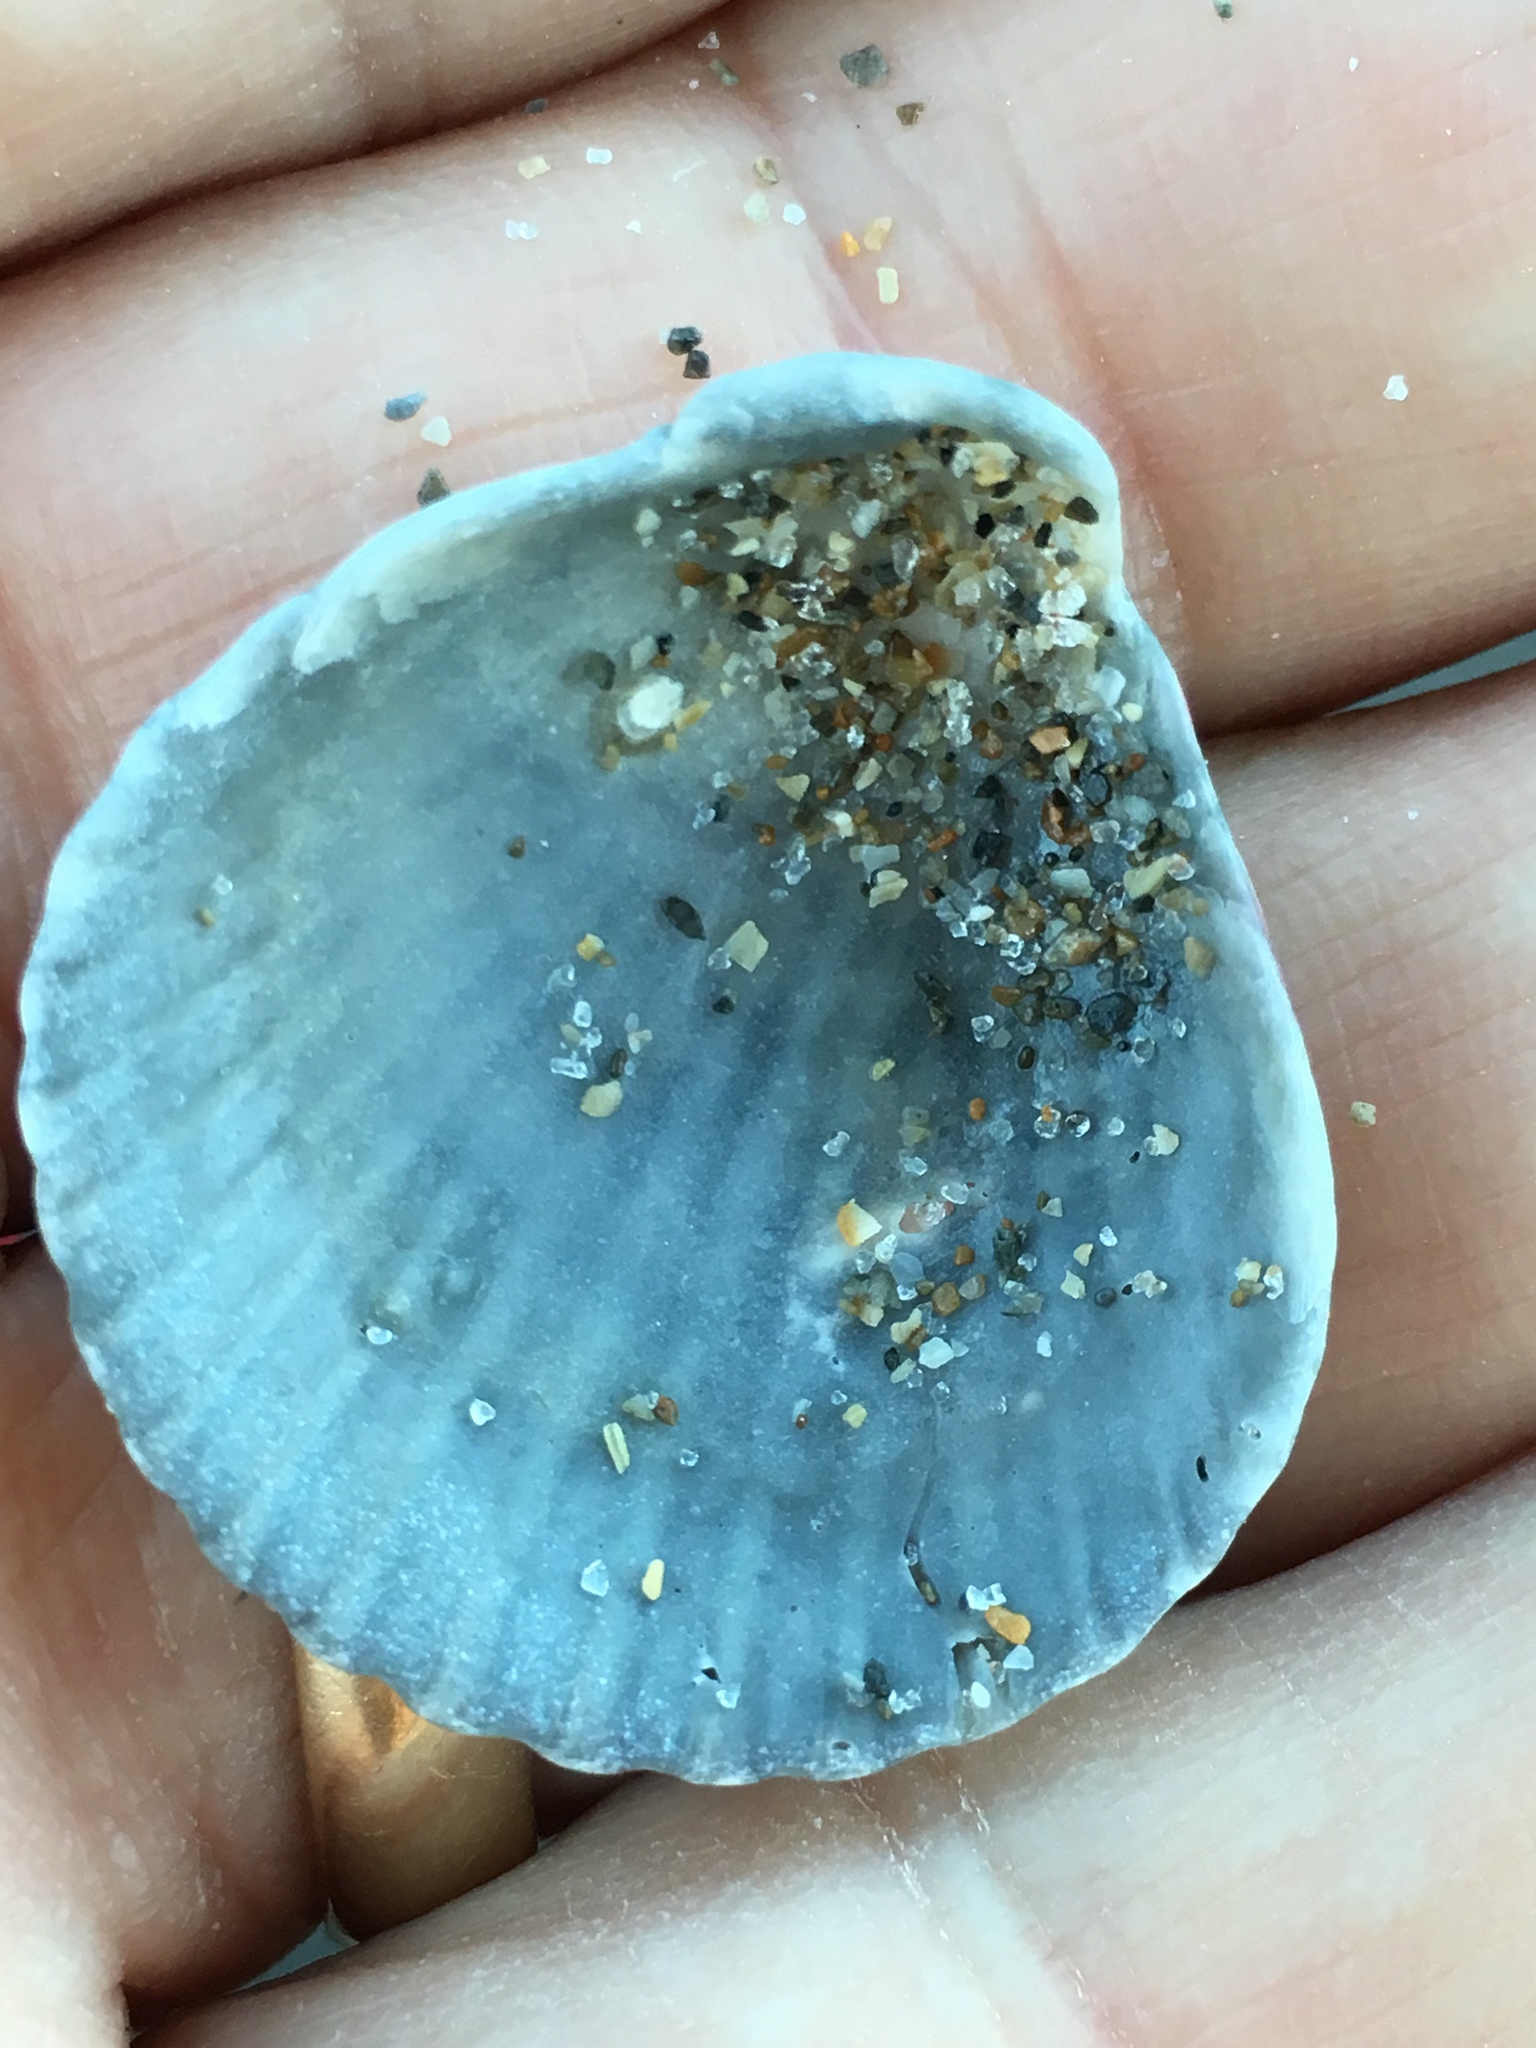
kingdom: Animalia
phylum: Mollusca
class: Bivalvia
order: Pectinida
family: Pectinidae
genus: Argopecten
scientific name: Argopecten gibbus
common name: Atlantic calico scallop
